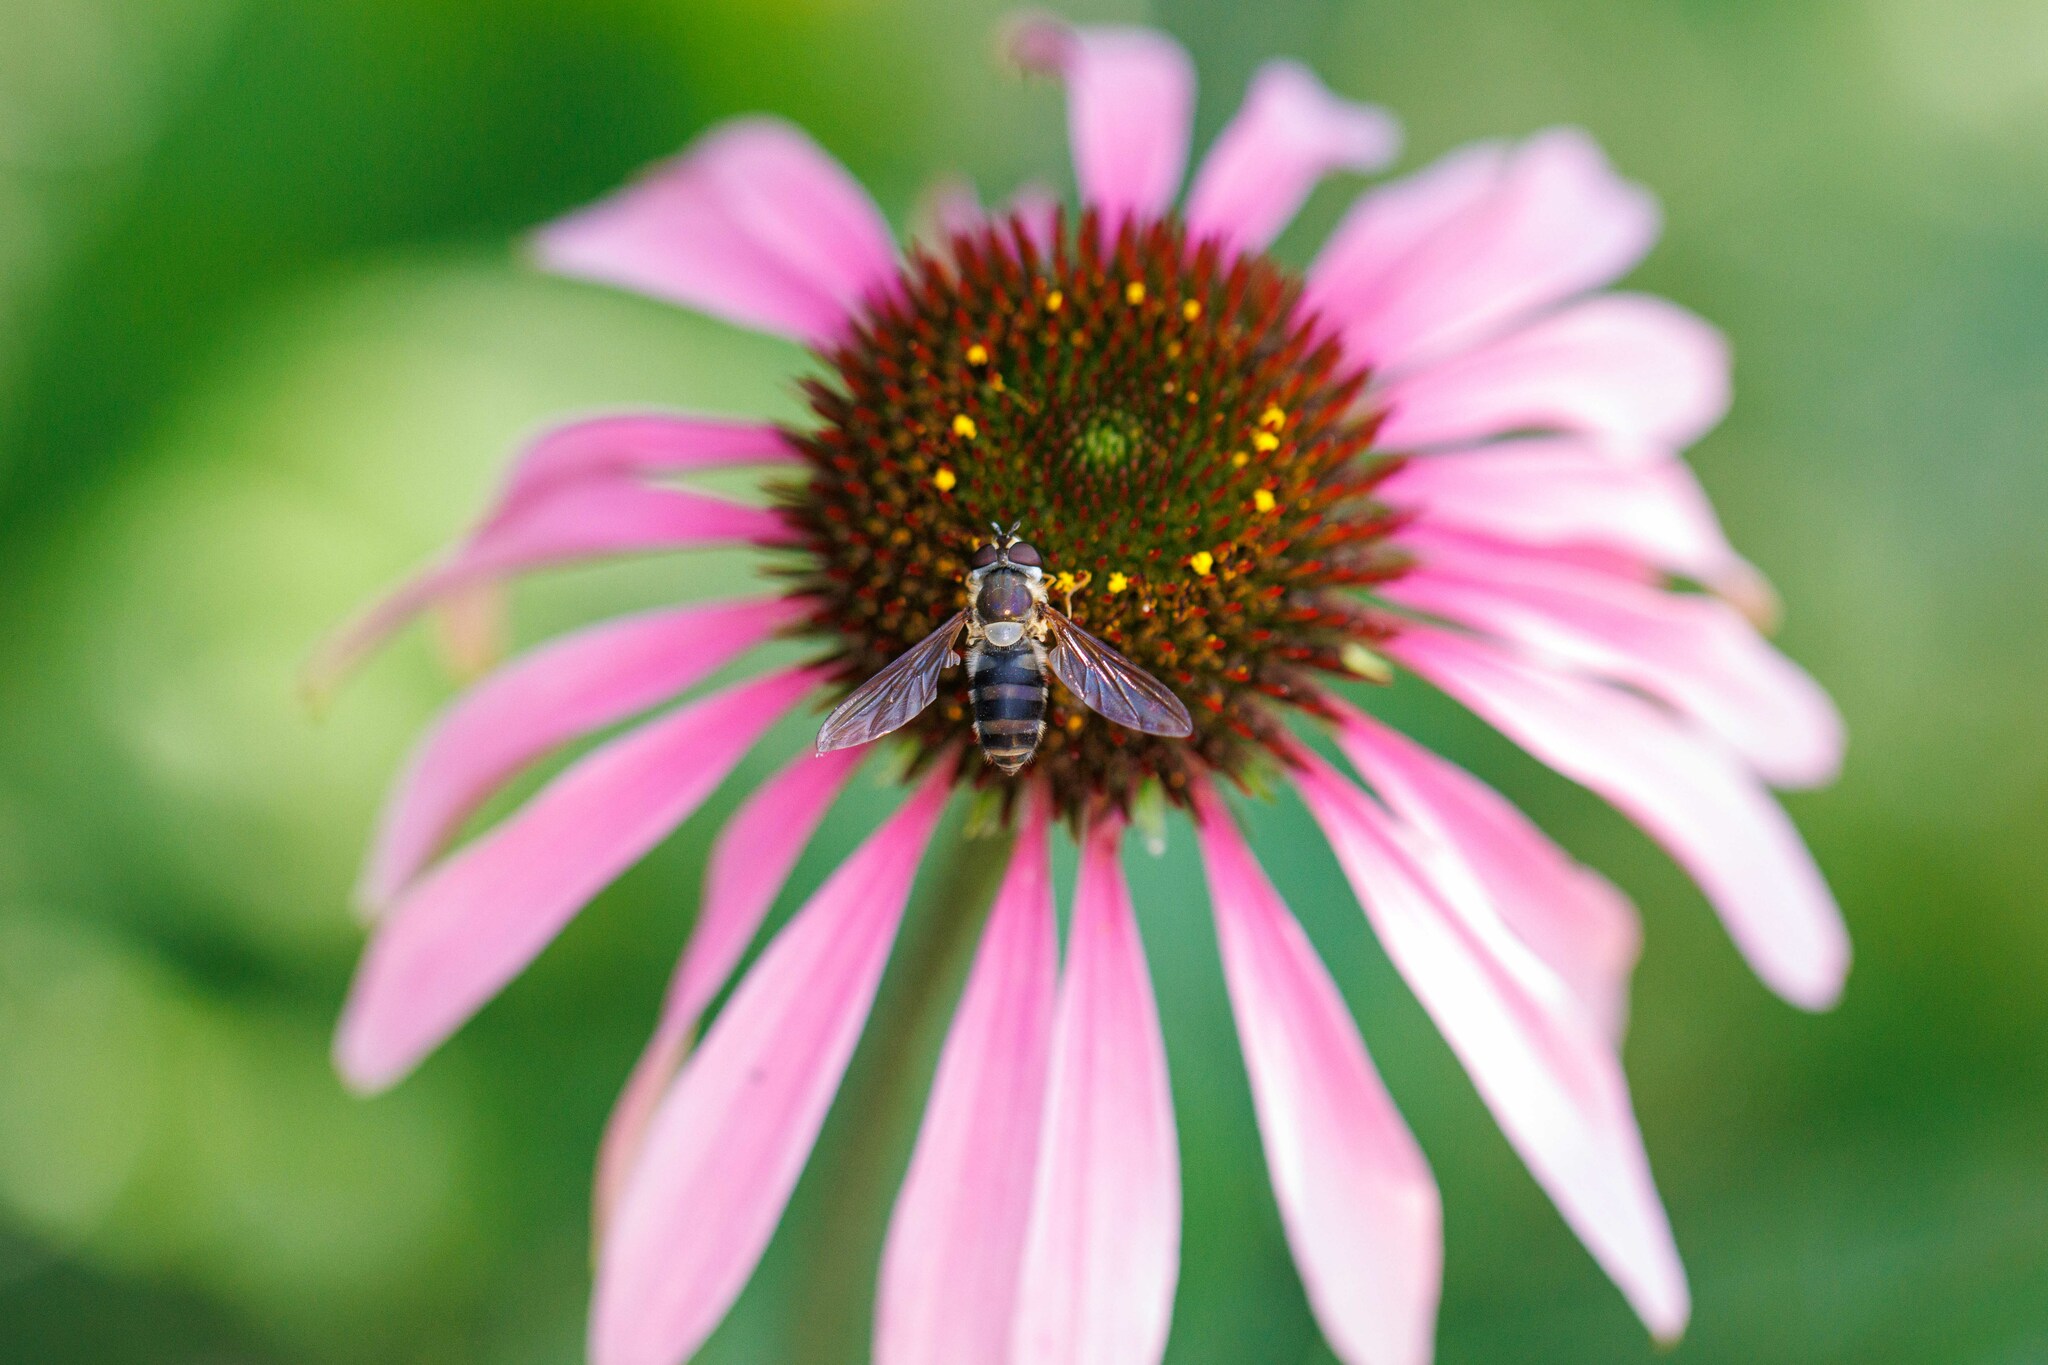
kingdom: Animalia
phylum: Arthropoda
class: Insecta
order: Diptera
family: Syrphidae
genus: Epistrophe
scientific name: Epistrophe grossulariae
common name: Black-horned smoothtail
